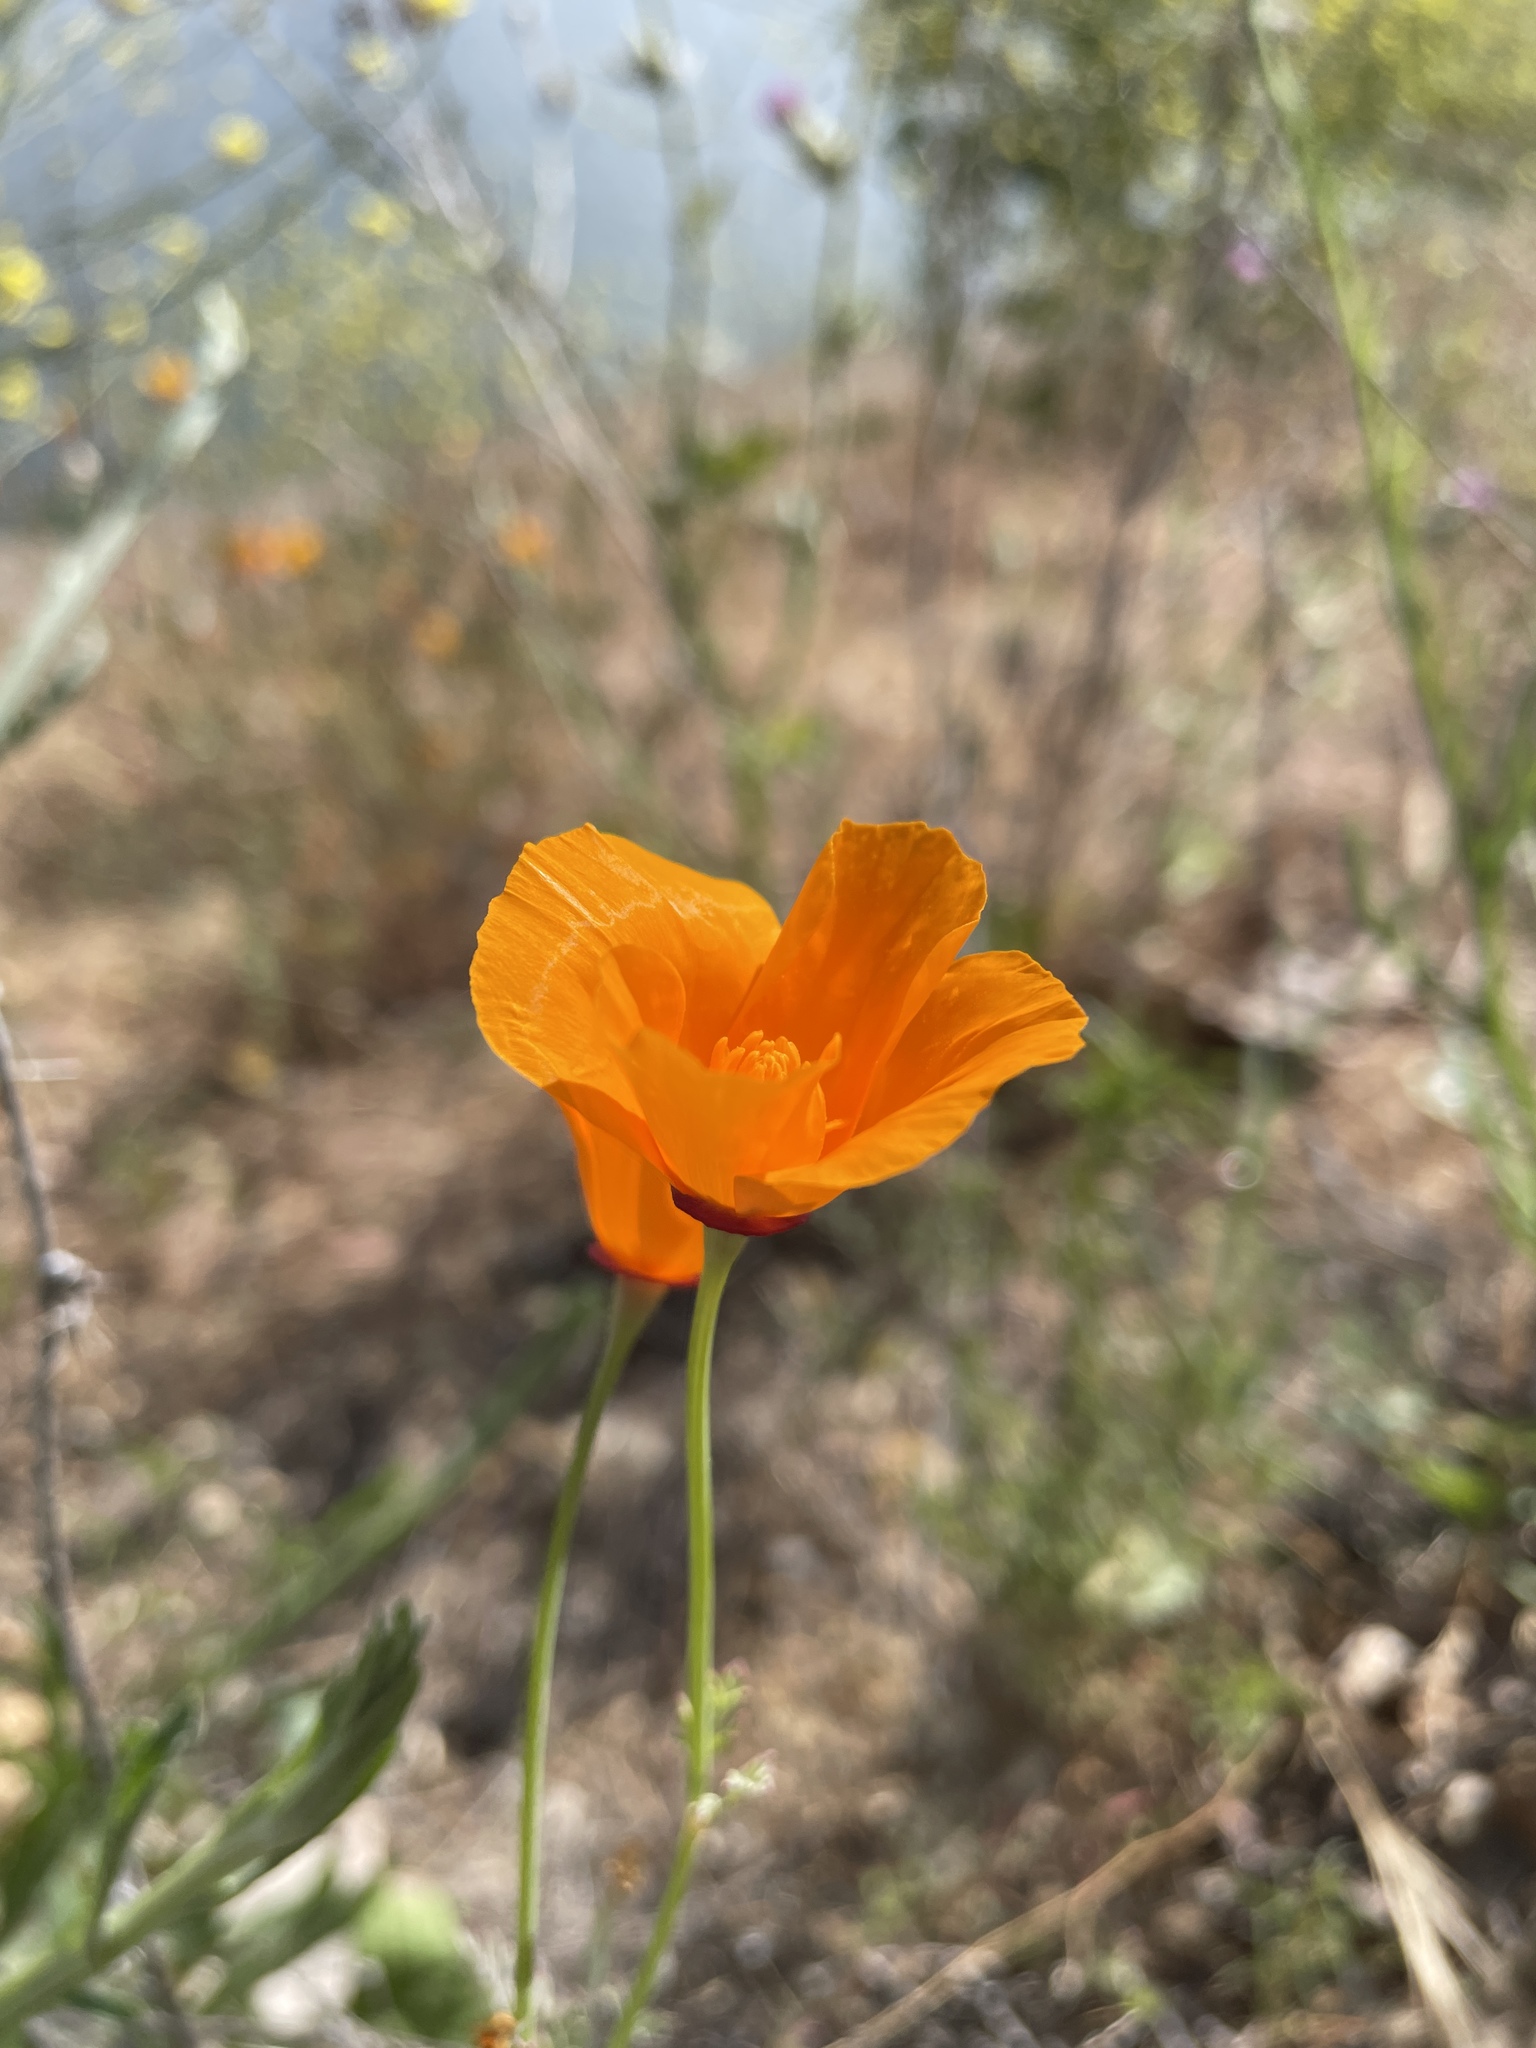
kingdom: Plantae
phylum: Tracheophyta
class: Magnoliopsida
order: Ranunculales
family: Papaveraceae
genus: Eschscholzia
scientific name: Eschscholzia californica
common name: California poppy
